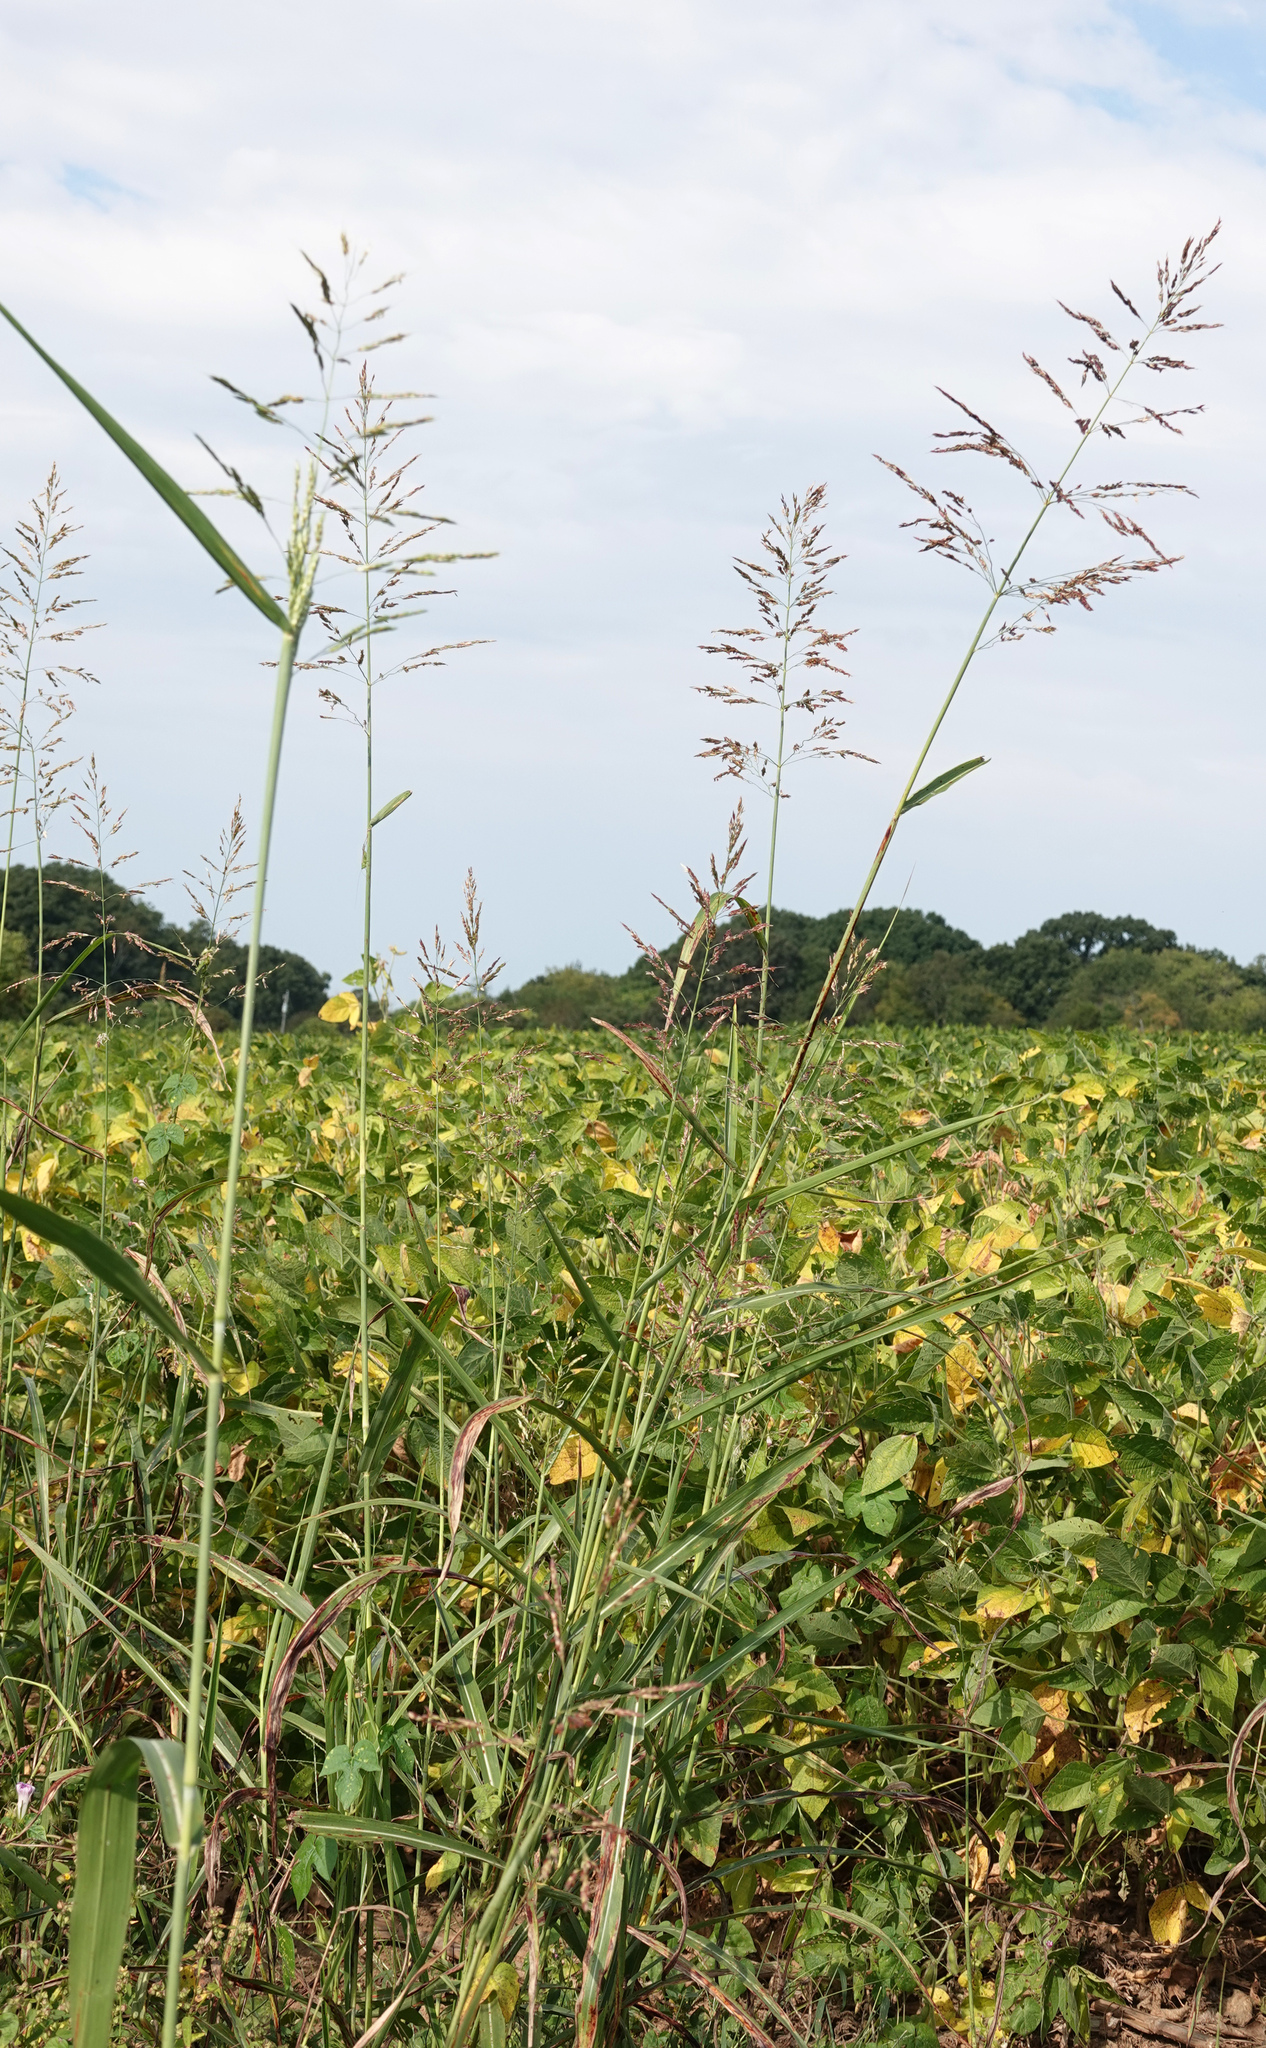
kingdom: Plantae
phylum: Tracheophyta
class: Liliopsida
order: Poales
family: Poaceae
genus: Sorghum
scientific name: Sorghum halepense
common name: Johnson-grass
